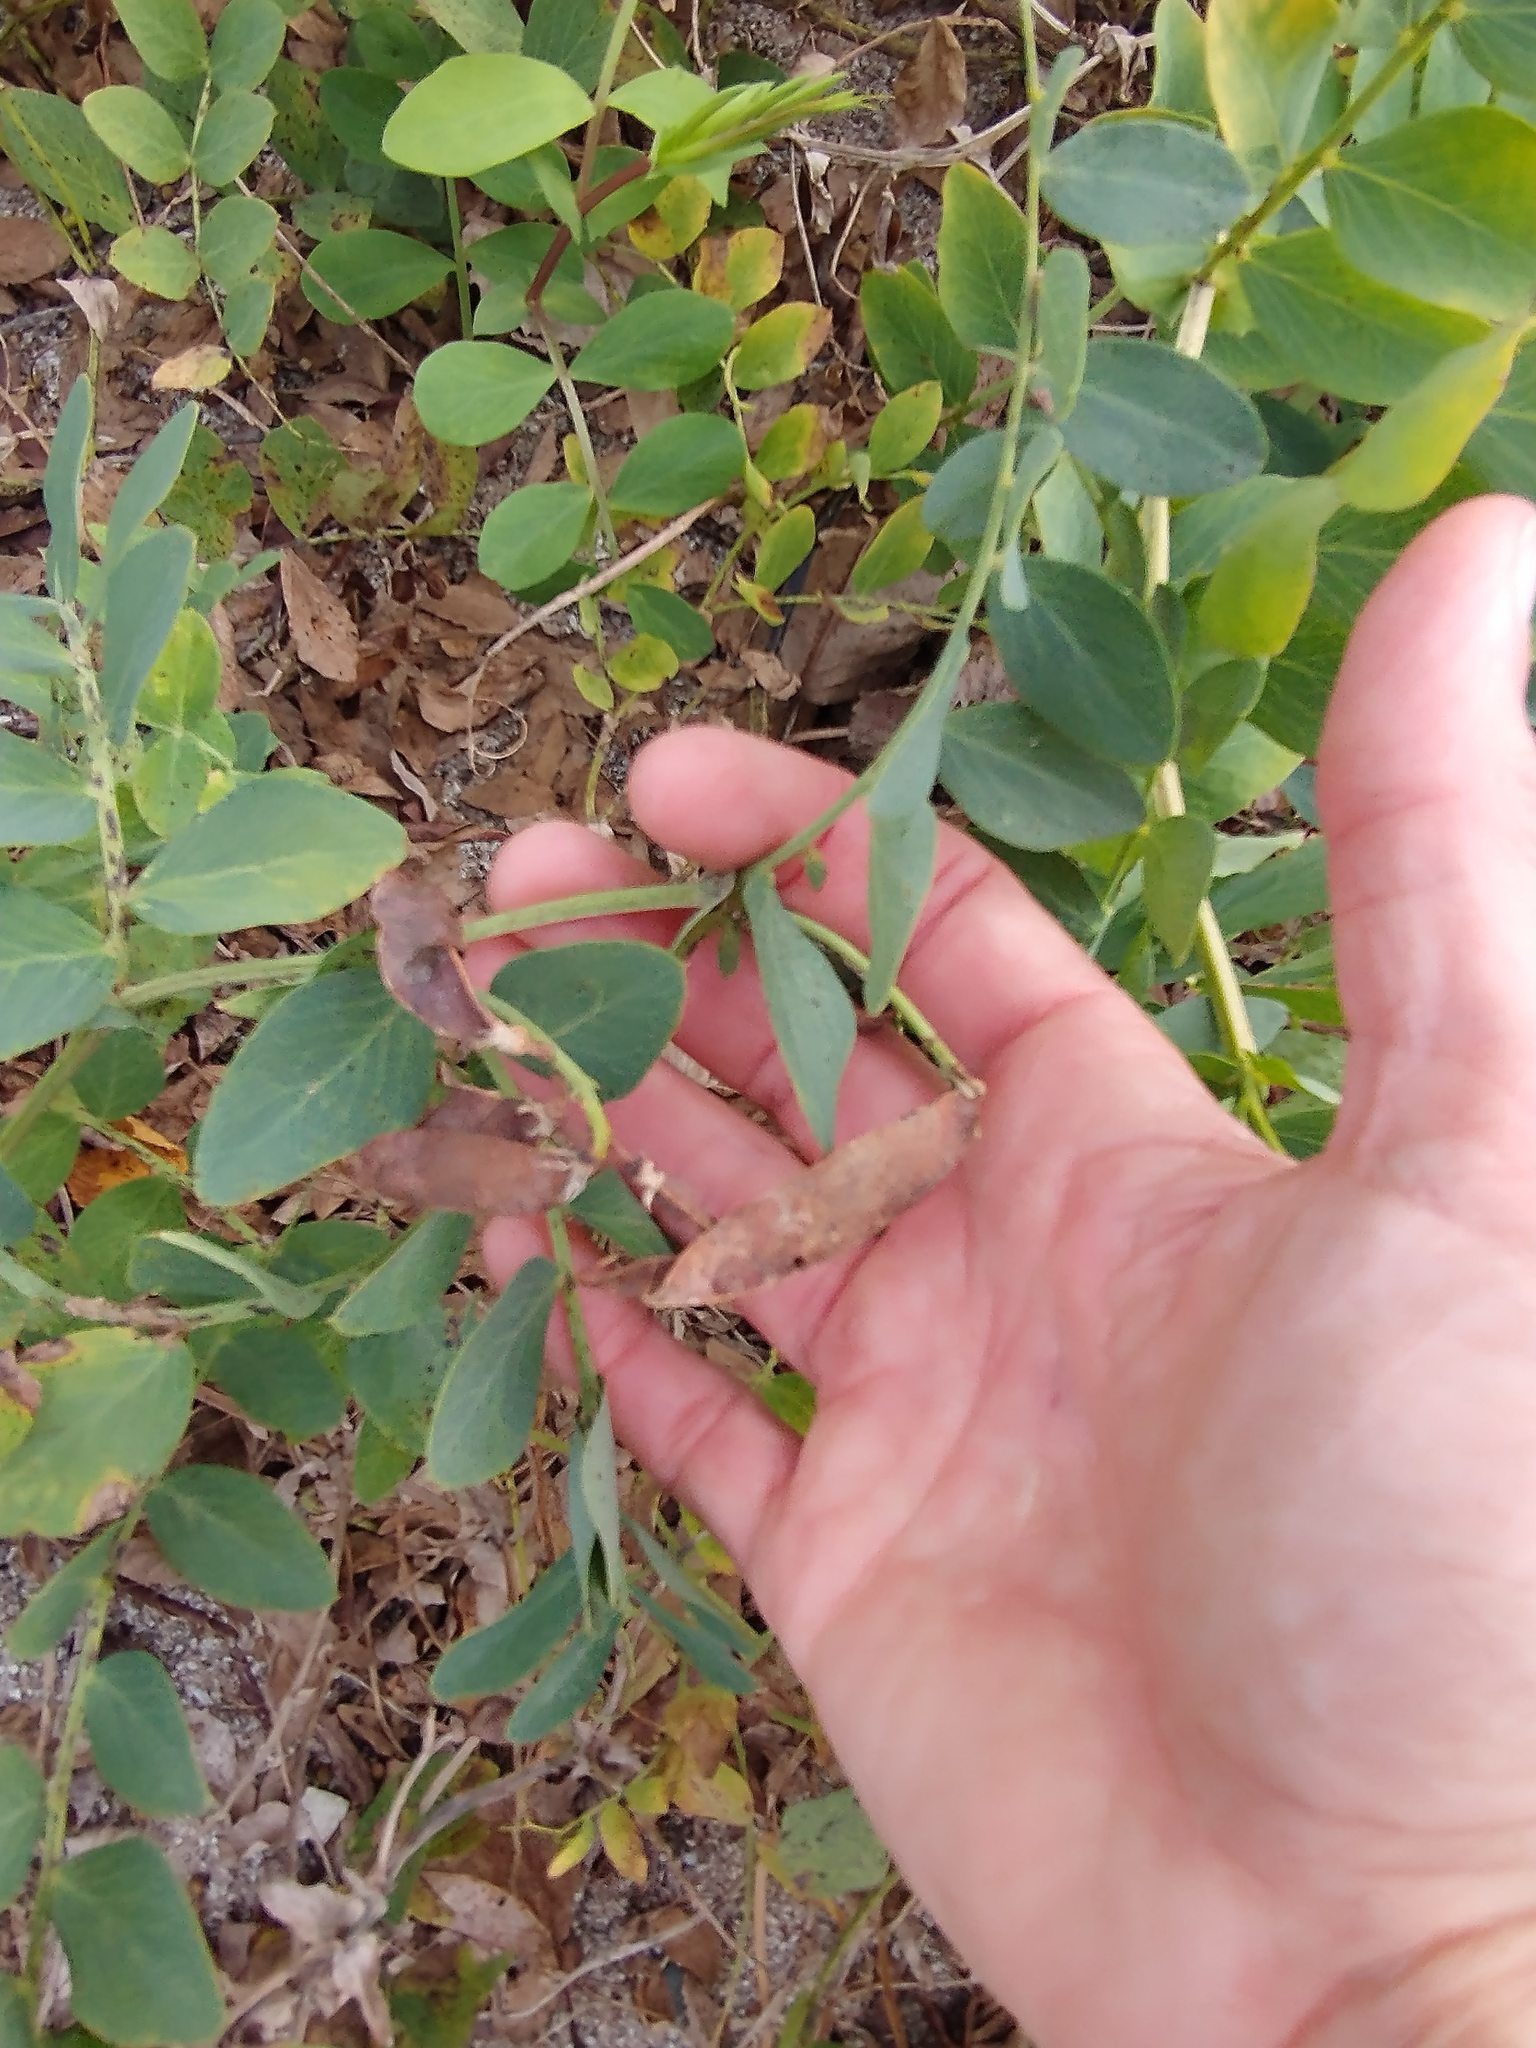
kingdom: Plantae
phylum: Tracheophyta
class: Magnoliopsida
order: Fabales
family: Fabaceae
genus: Lathyrus
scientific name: Lathyrus japonicus
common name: Sea pea
